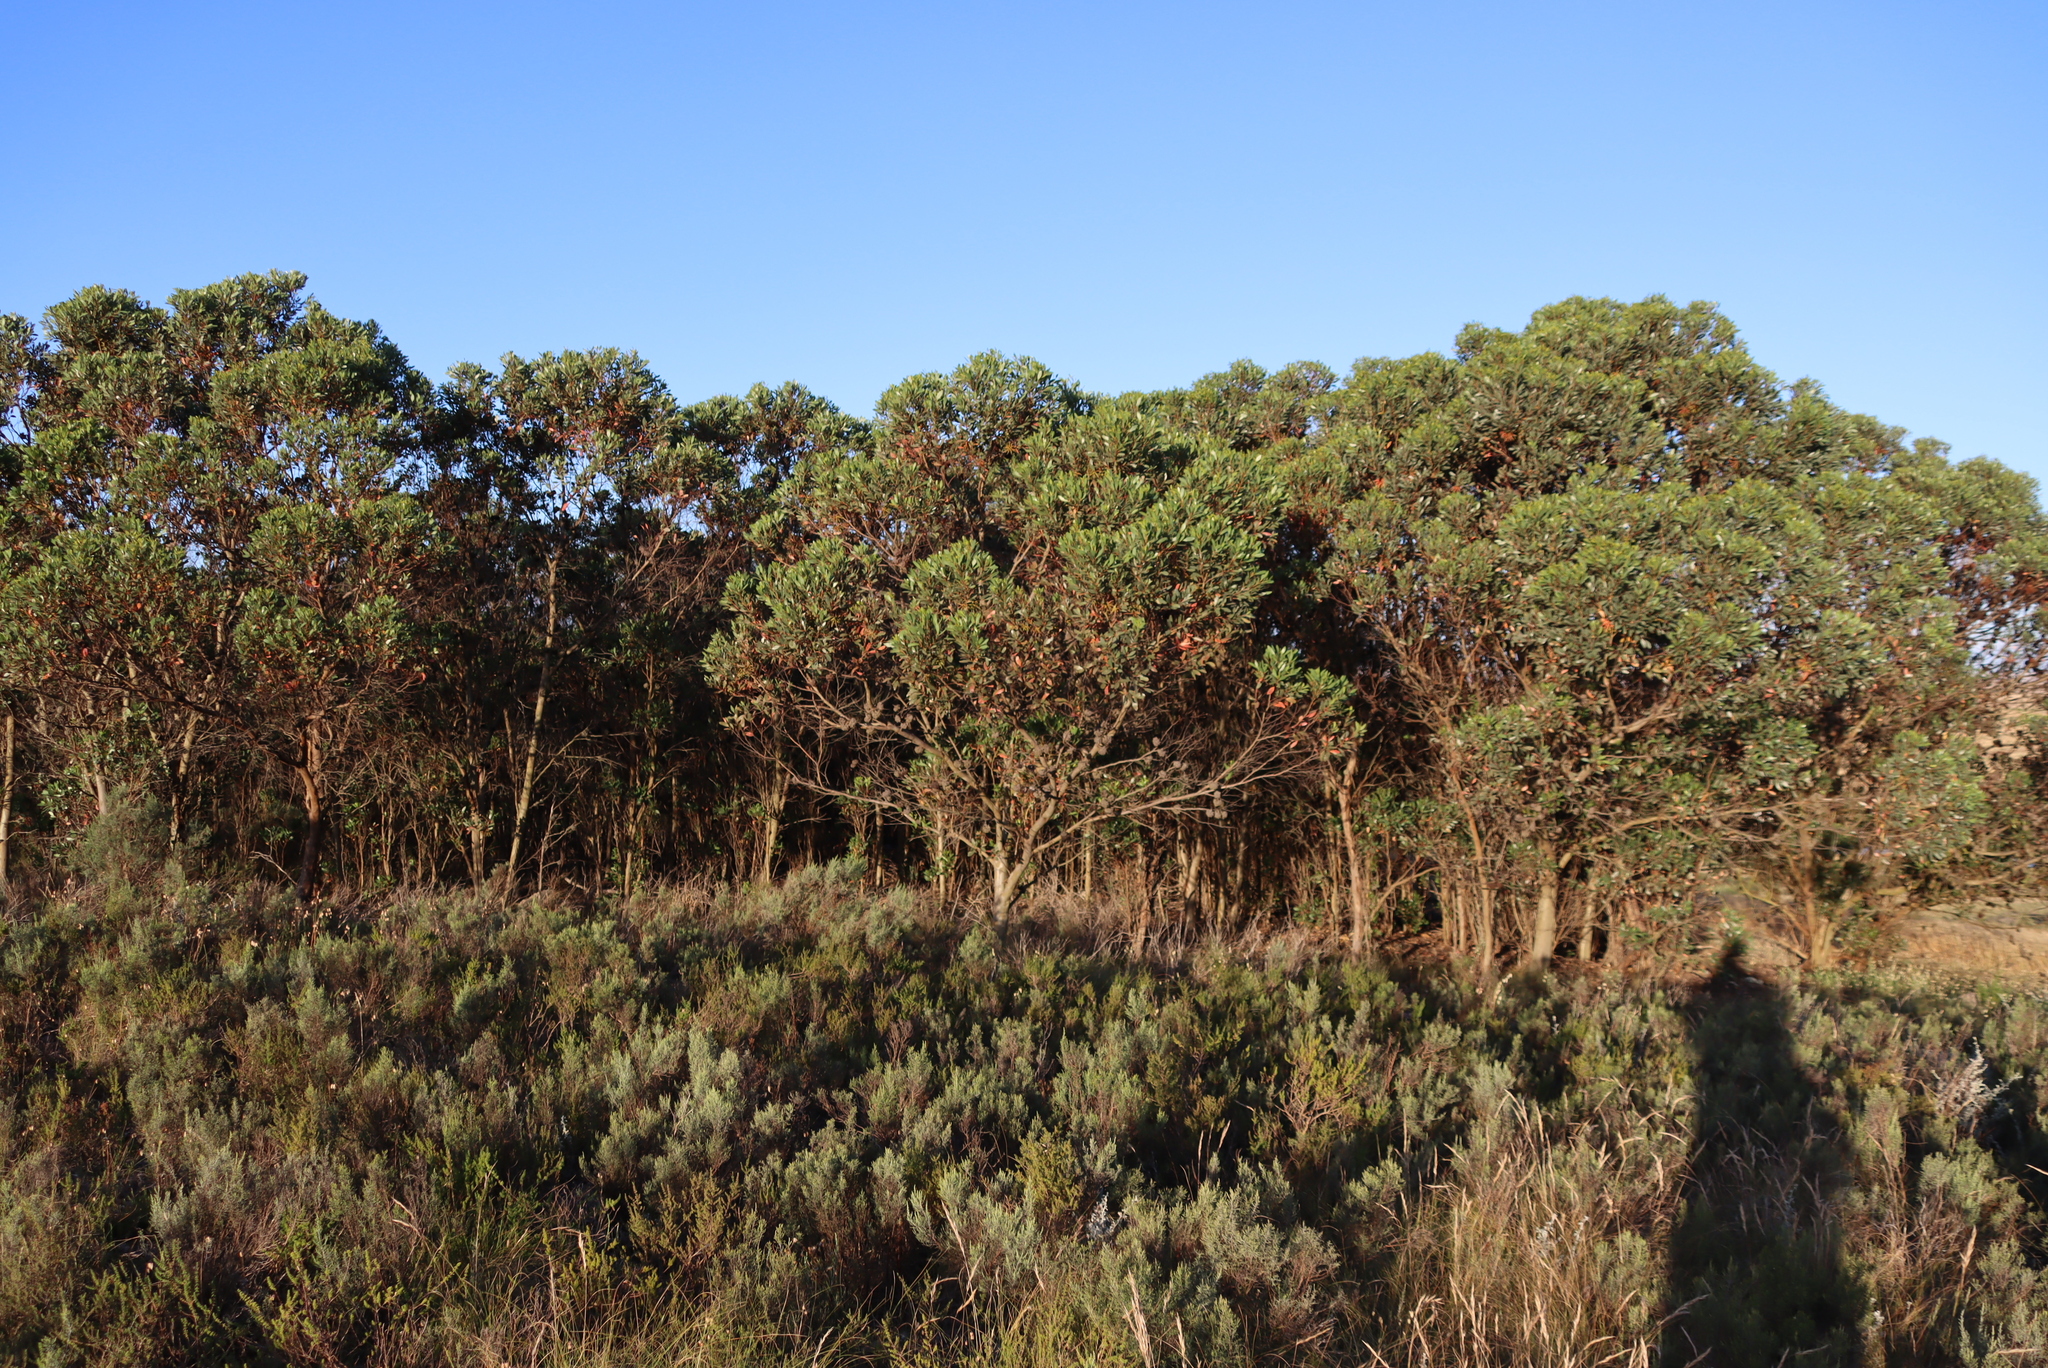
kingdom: Plantae
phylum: Tracheophyta
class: Magnoliopsida
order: Myrtales
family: Myrtaceae
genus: Eucalyptus
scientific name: Eucalyptus conferruminata
